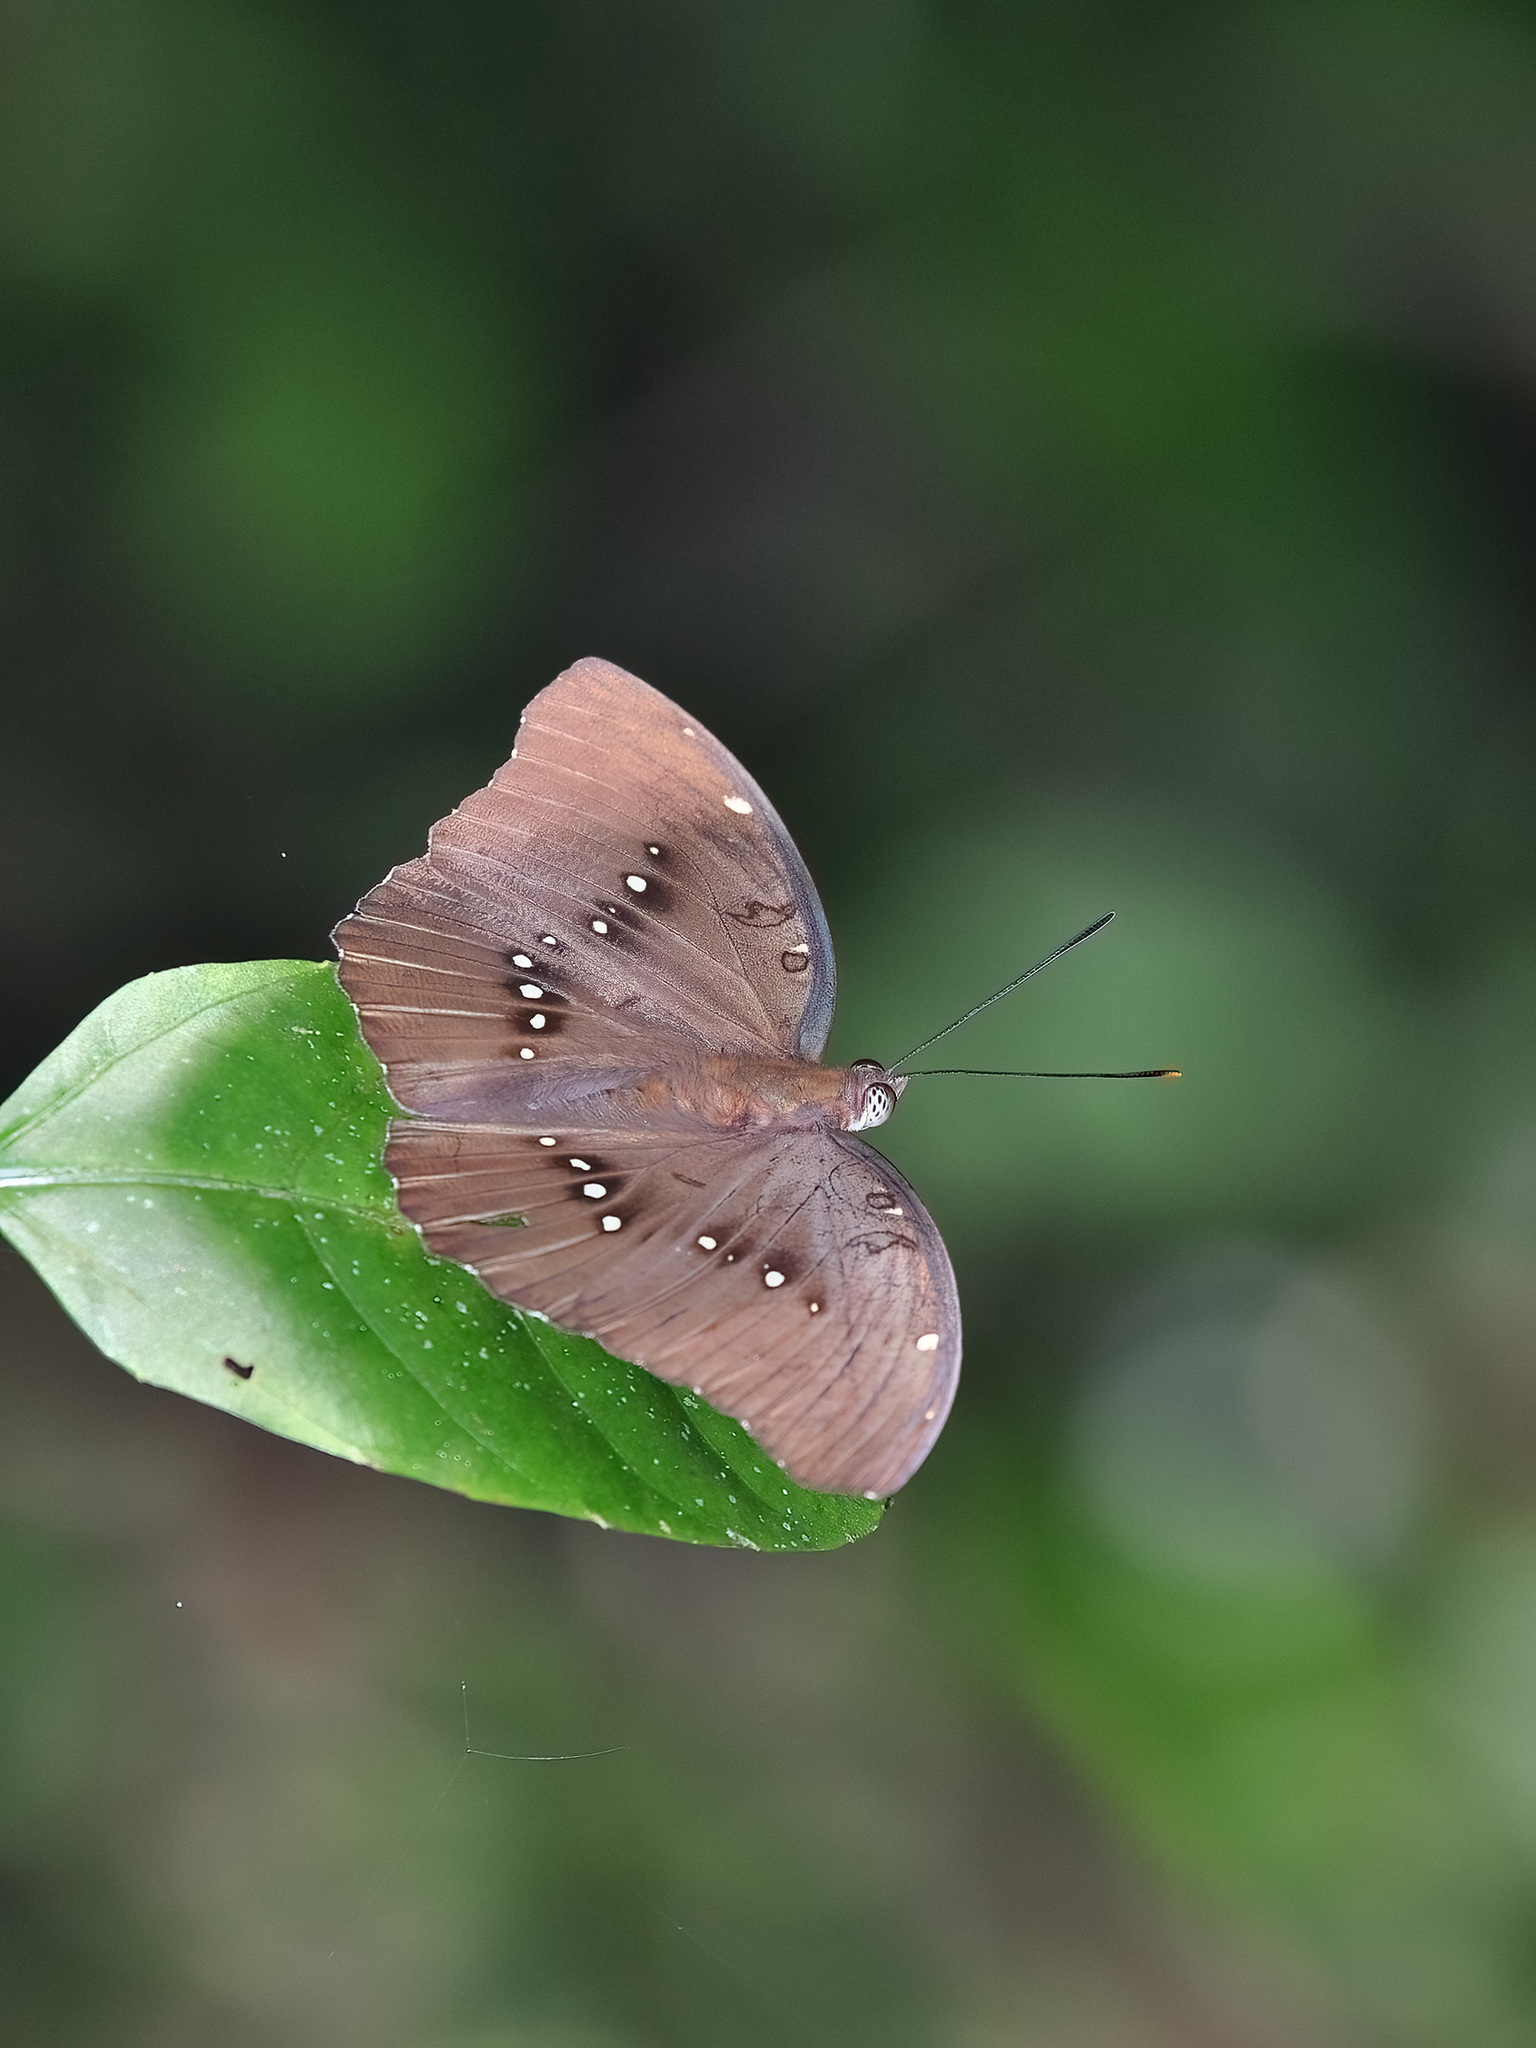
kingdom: Animalia
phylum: Arthropoda
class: Insecta
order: Lepidoptera
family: Nymphalidae
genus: Euthalia
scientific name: Euthalia Bassarona dunya
